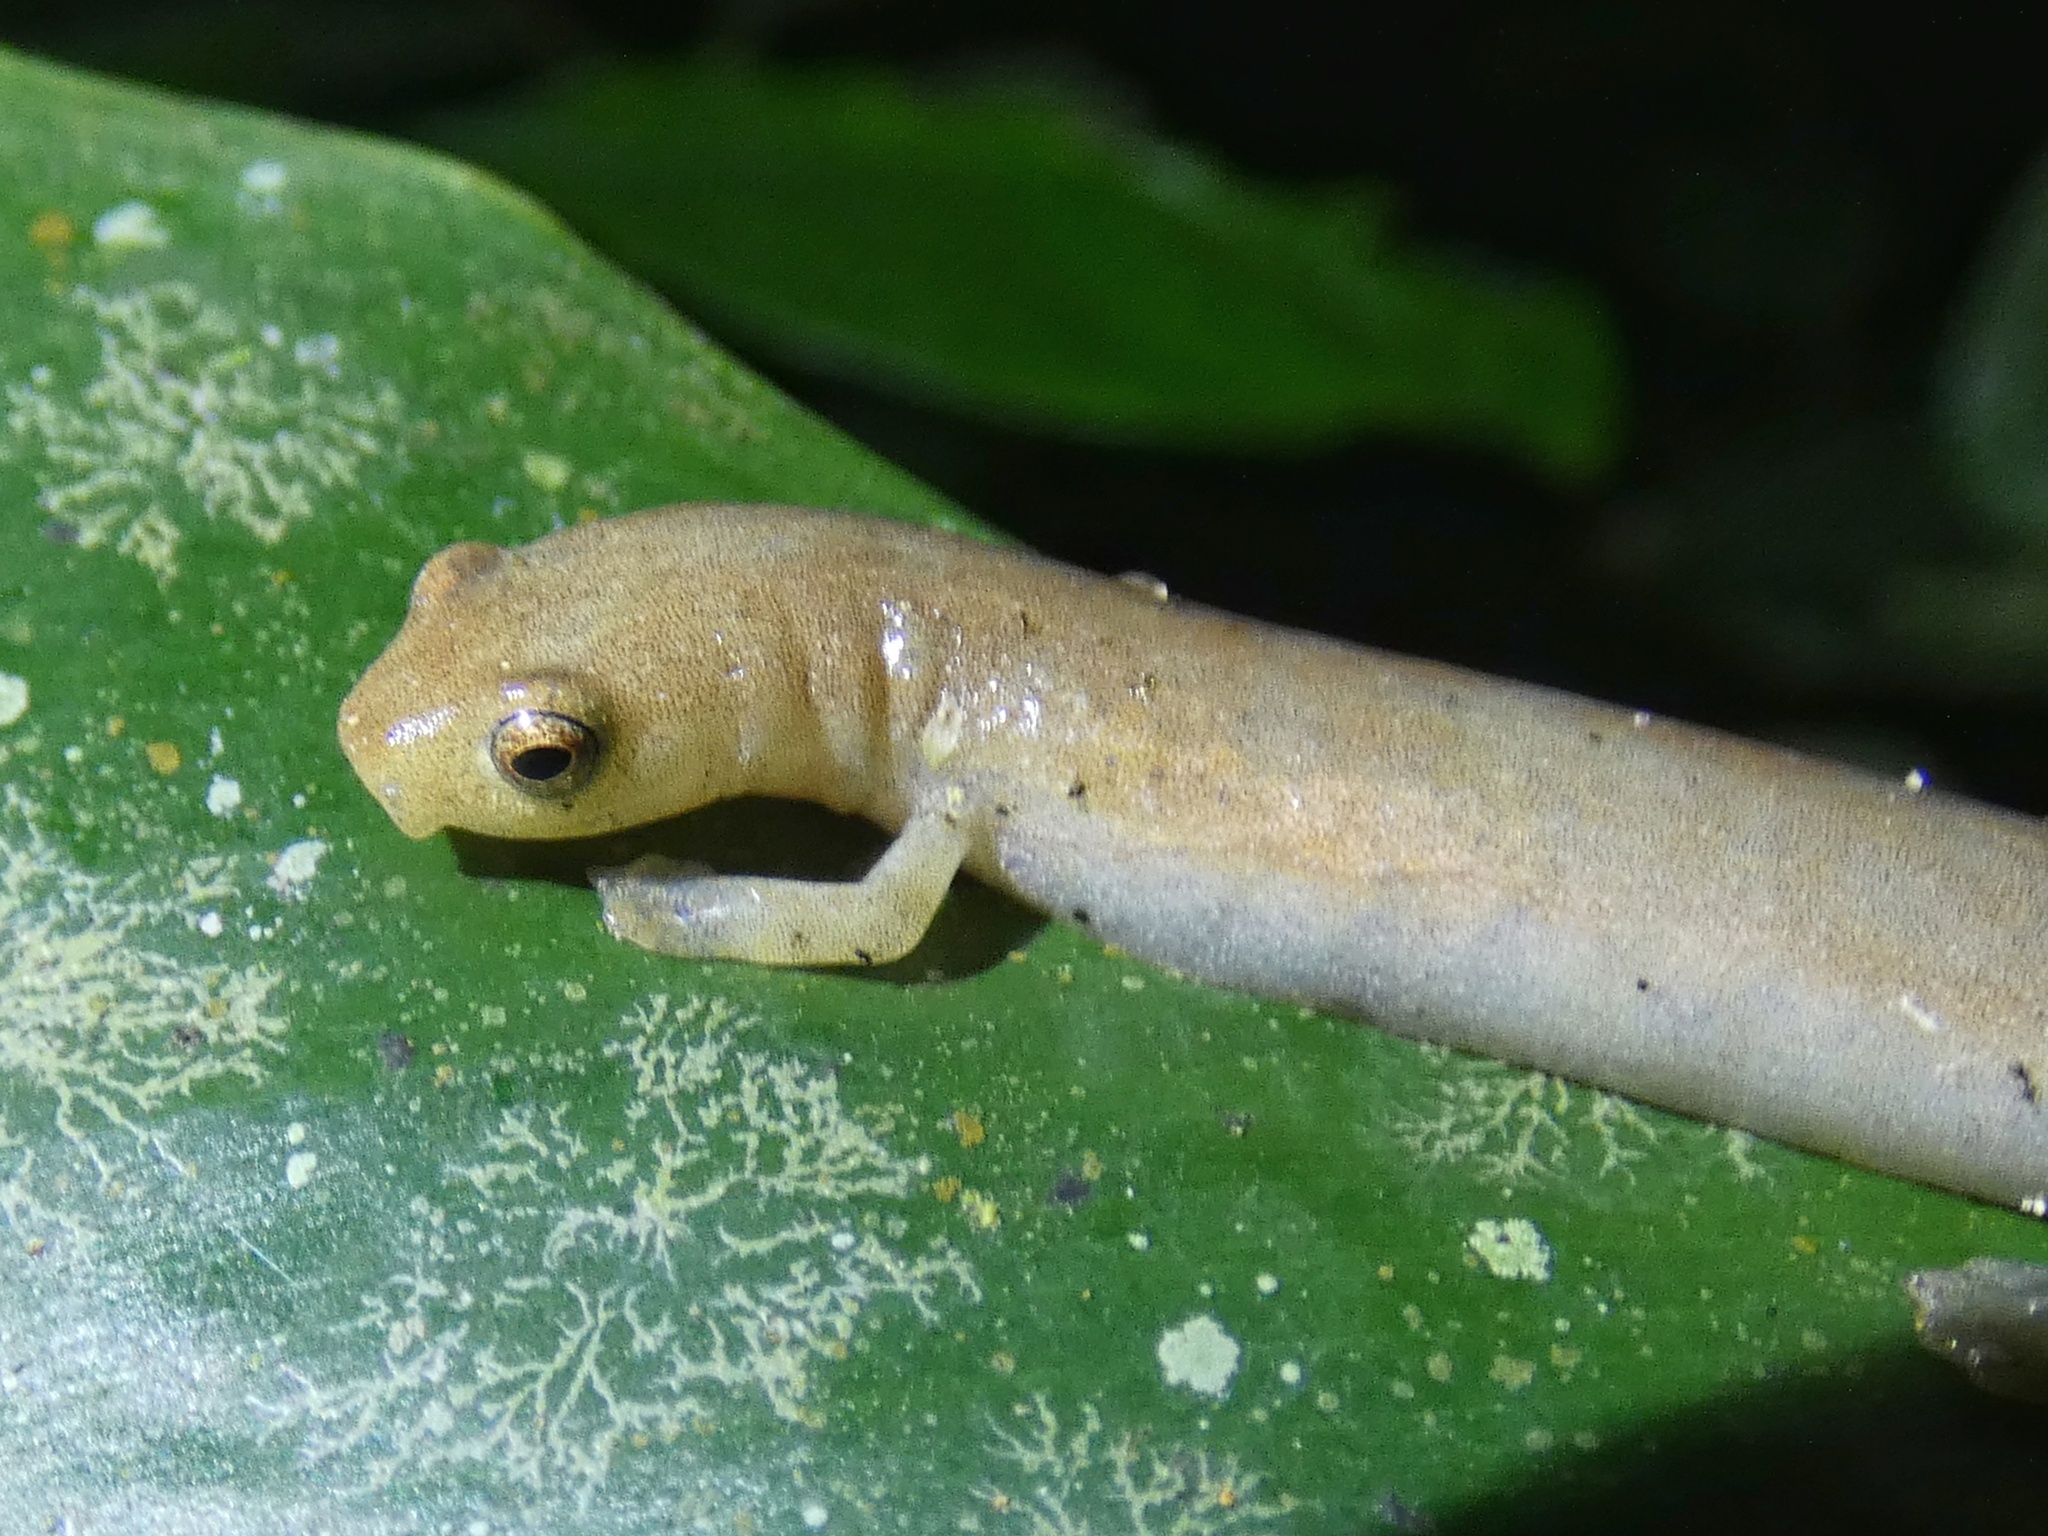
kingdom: Animalia
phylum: Chordata
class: Amphibia
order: Caudata
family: Plethodontidae
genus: Bolitoglossa
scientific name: Bolitoglossa cuna
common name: Camp sasardi salamander
